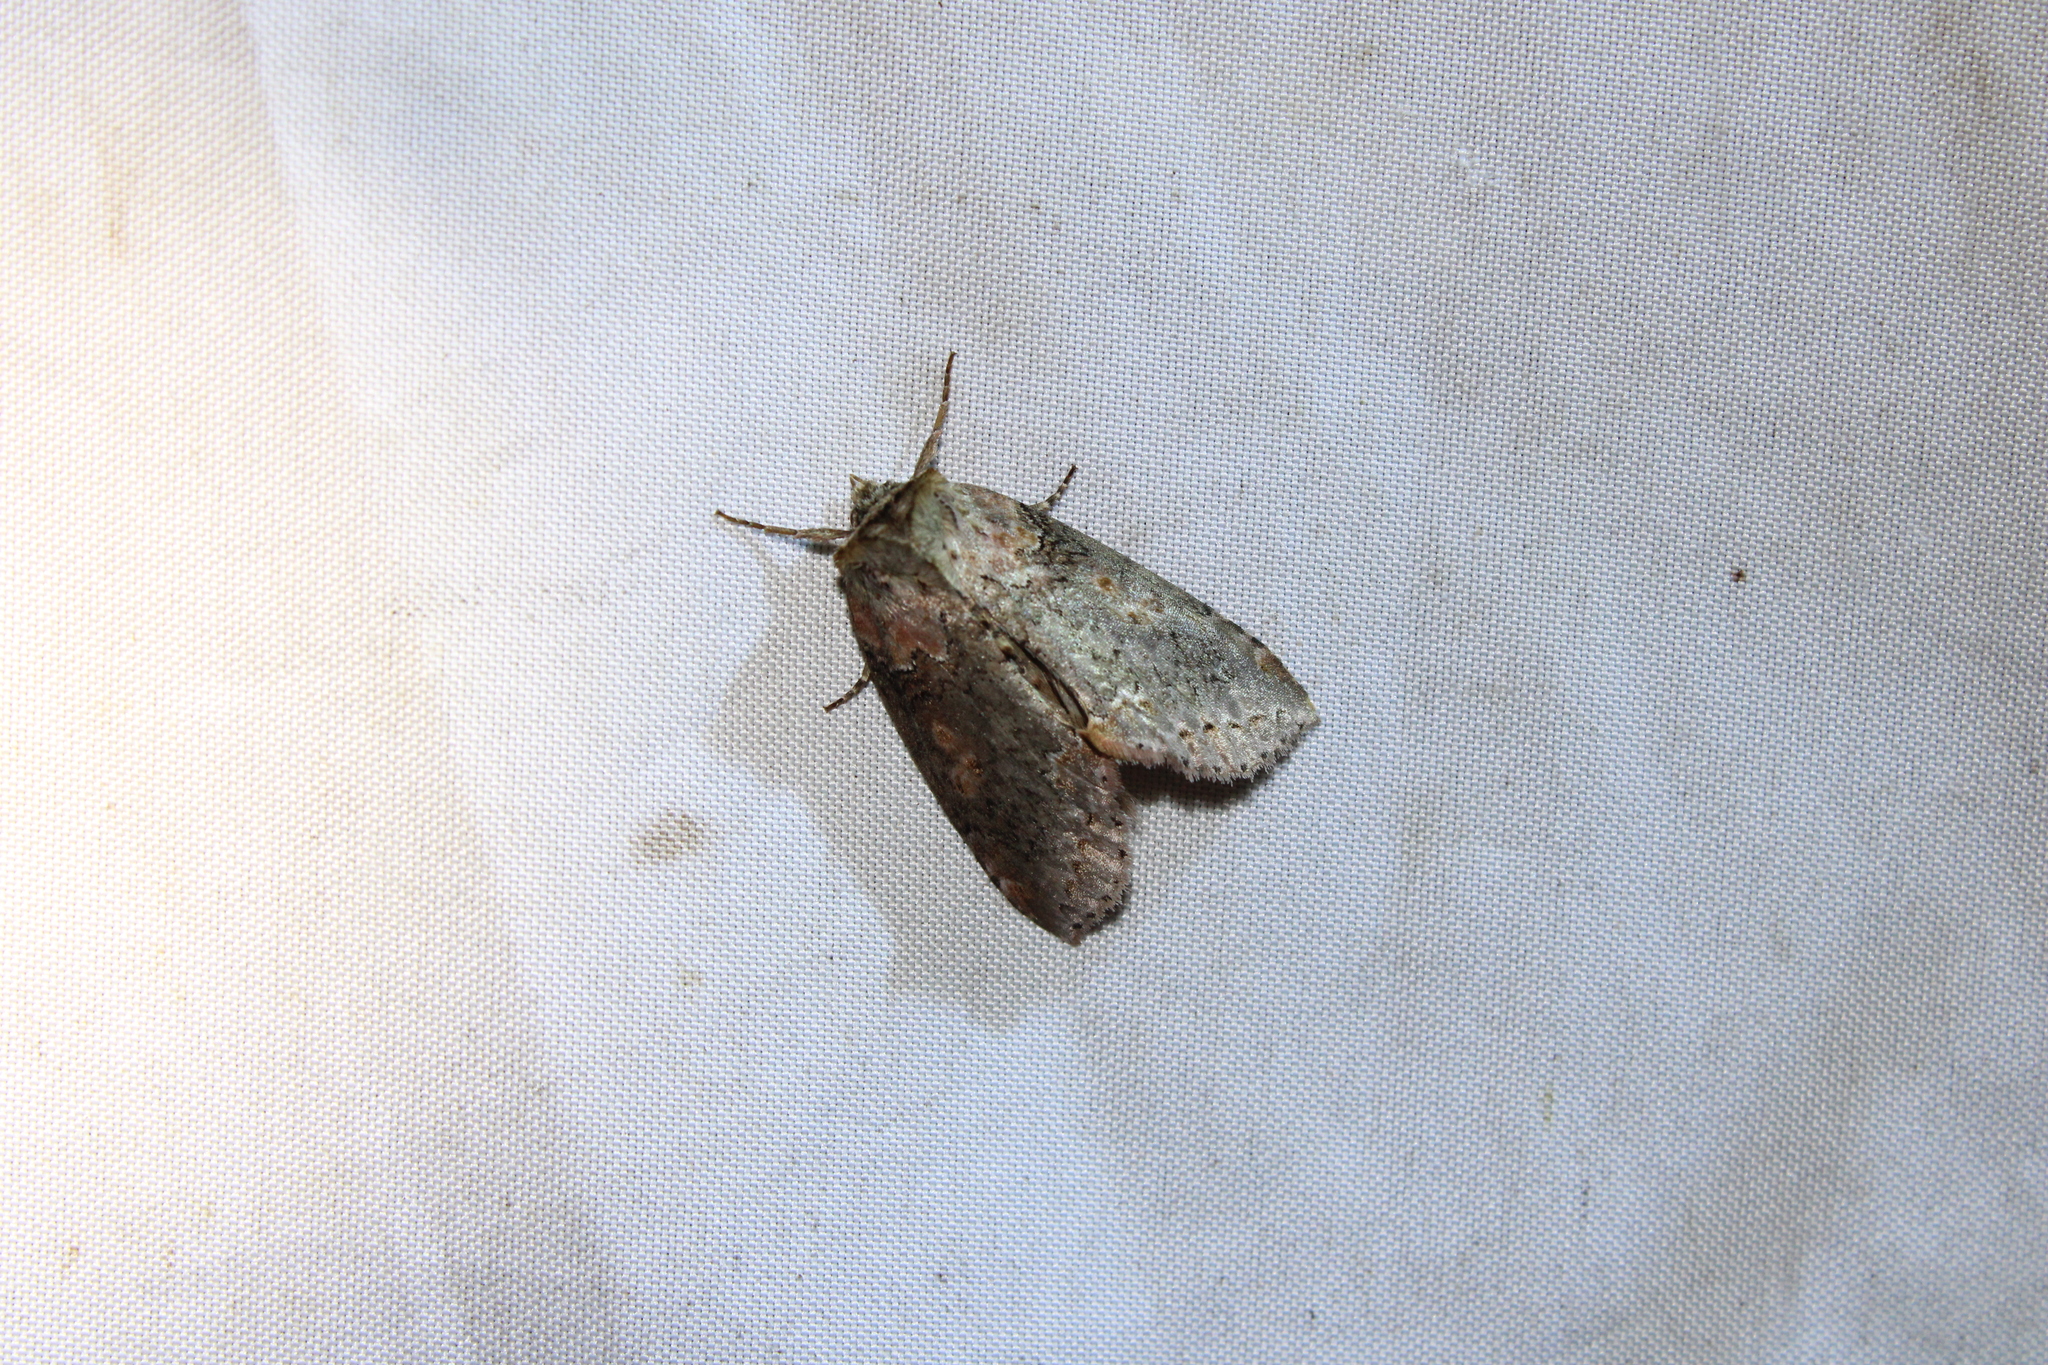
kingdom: Animalia
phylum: Arthropoda
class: Insecta
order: Lepidoptera
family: Drepanidae
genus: Pseudothyatira
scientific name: Pseudothyatira cymatophoroides
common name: Tufted thyatirid moth
